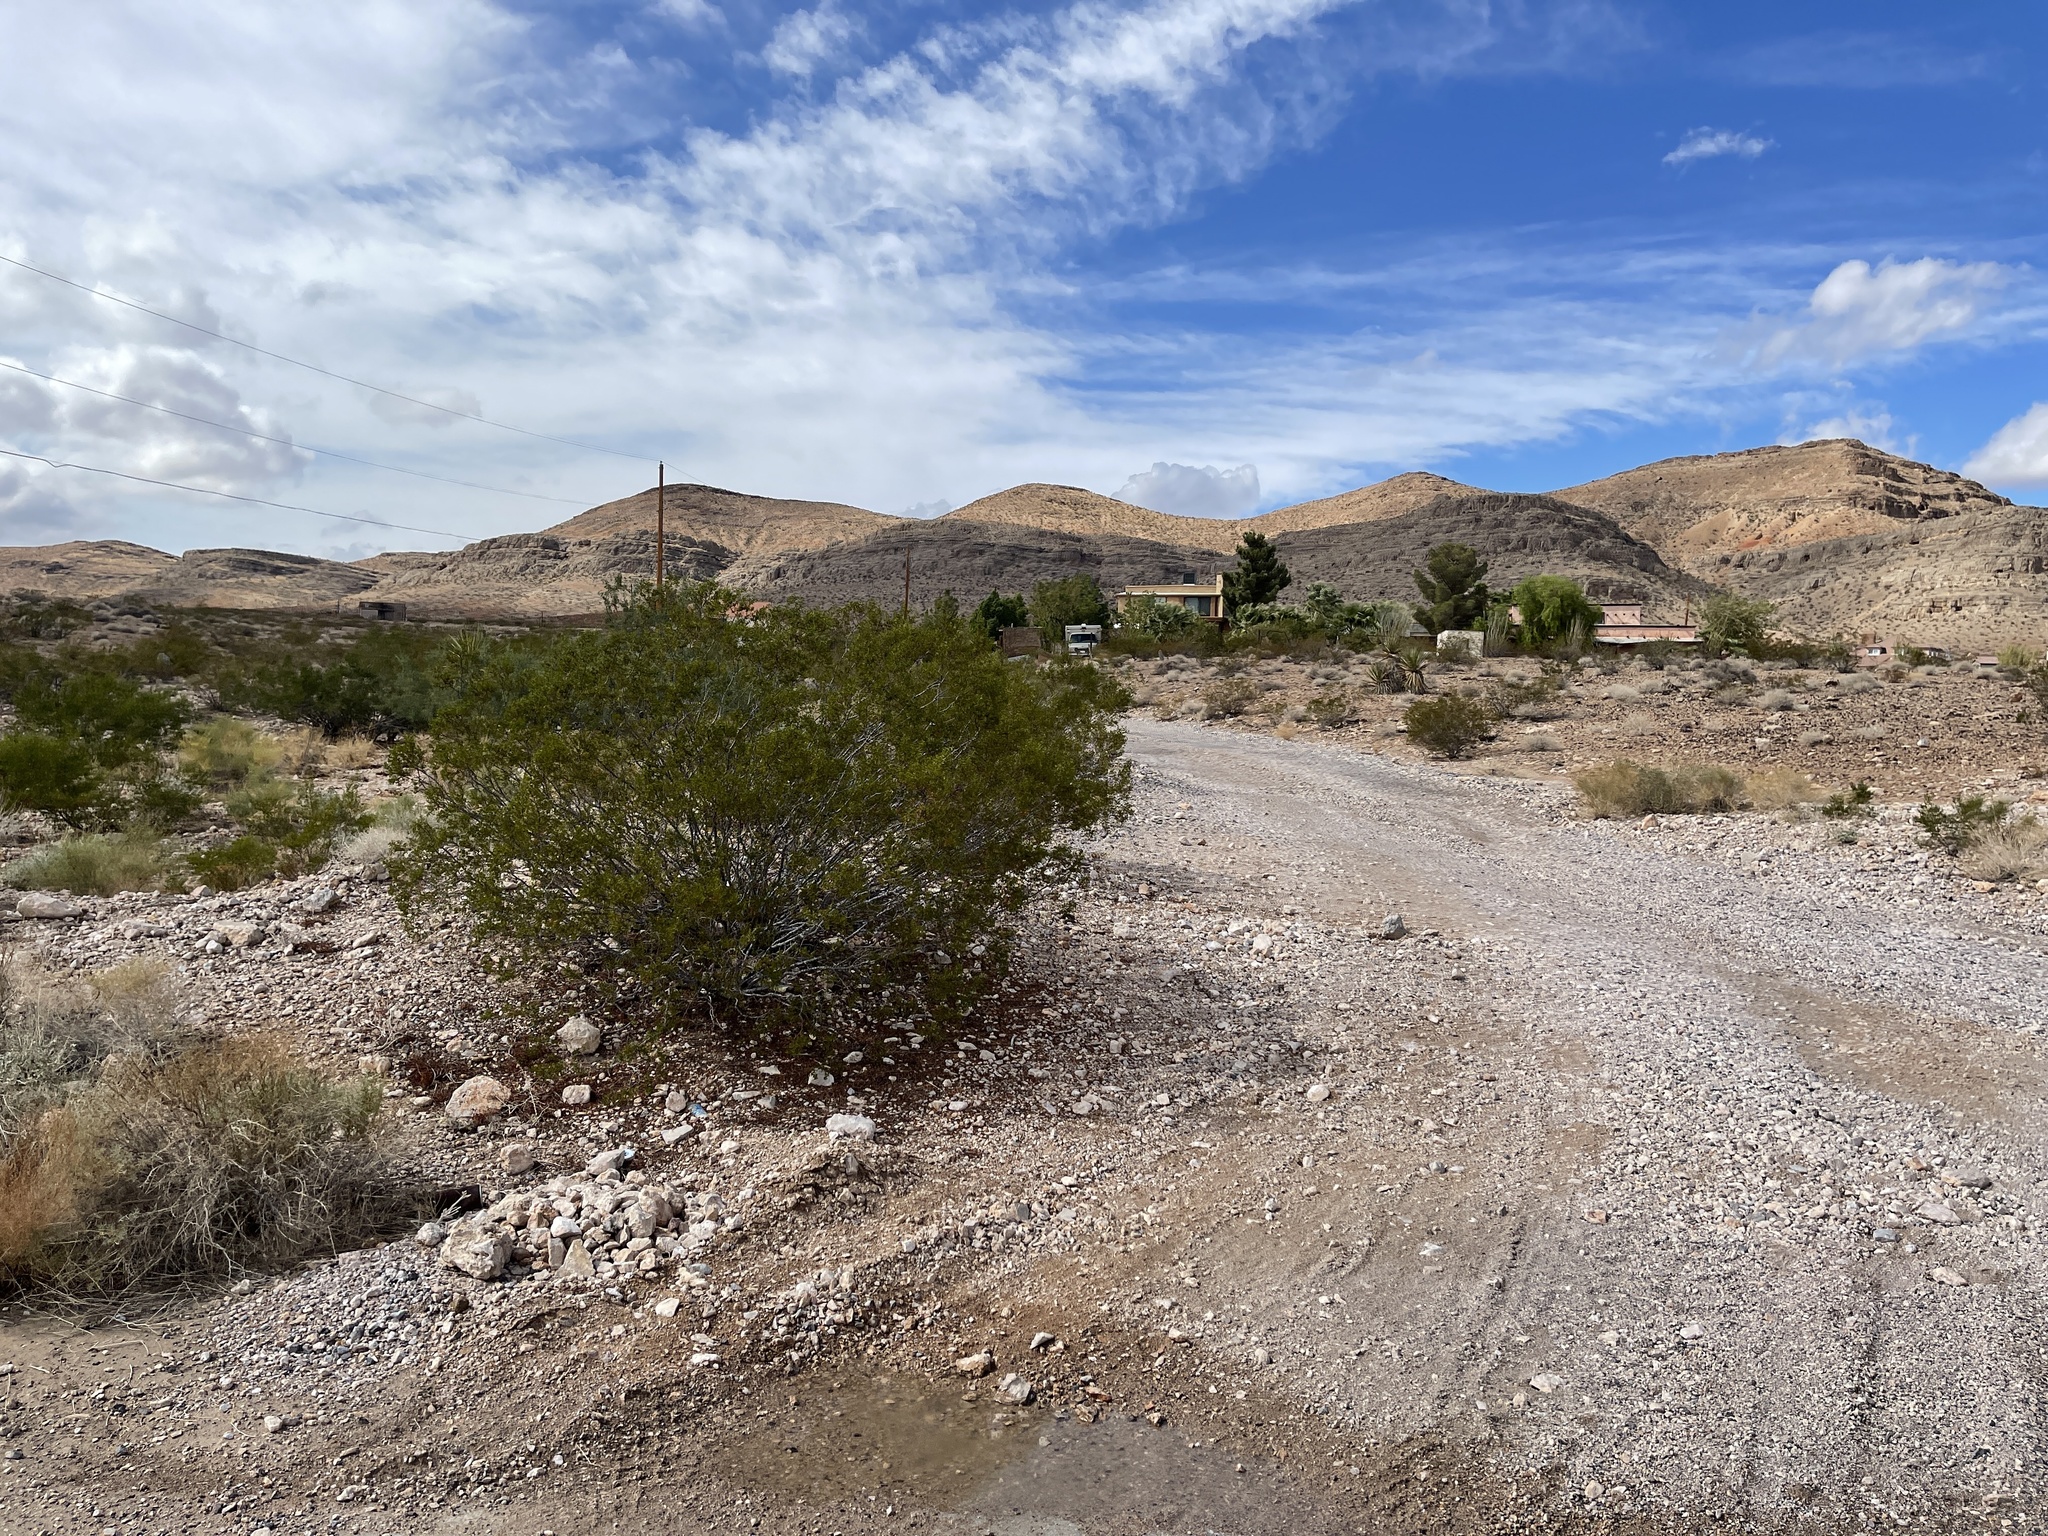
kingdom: Plantae
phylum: Tracheophyta
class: Magnoliopsida
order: Zygophyllales
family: Zygophyllaceae
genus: Larrea
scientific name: Larrea tridentata
